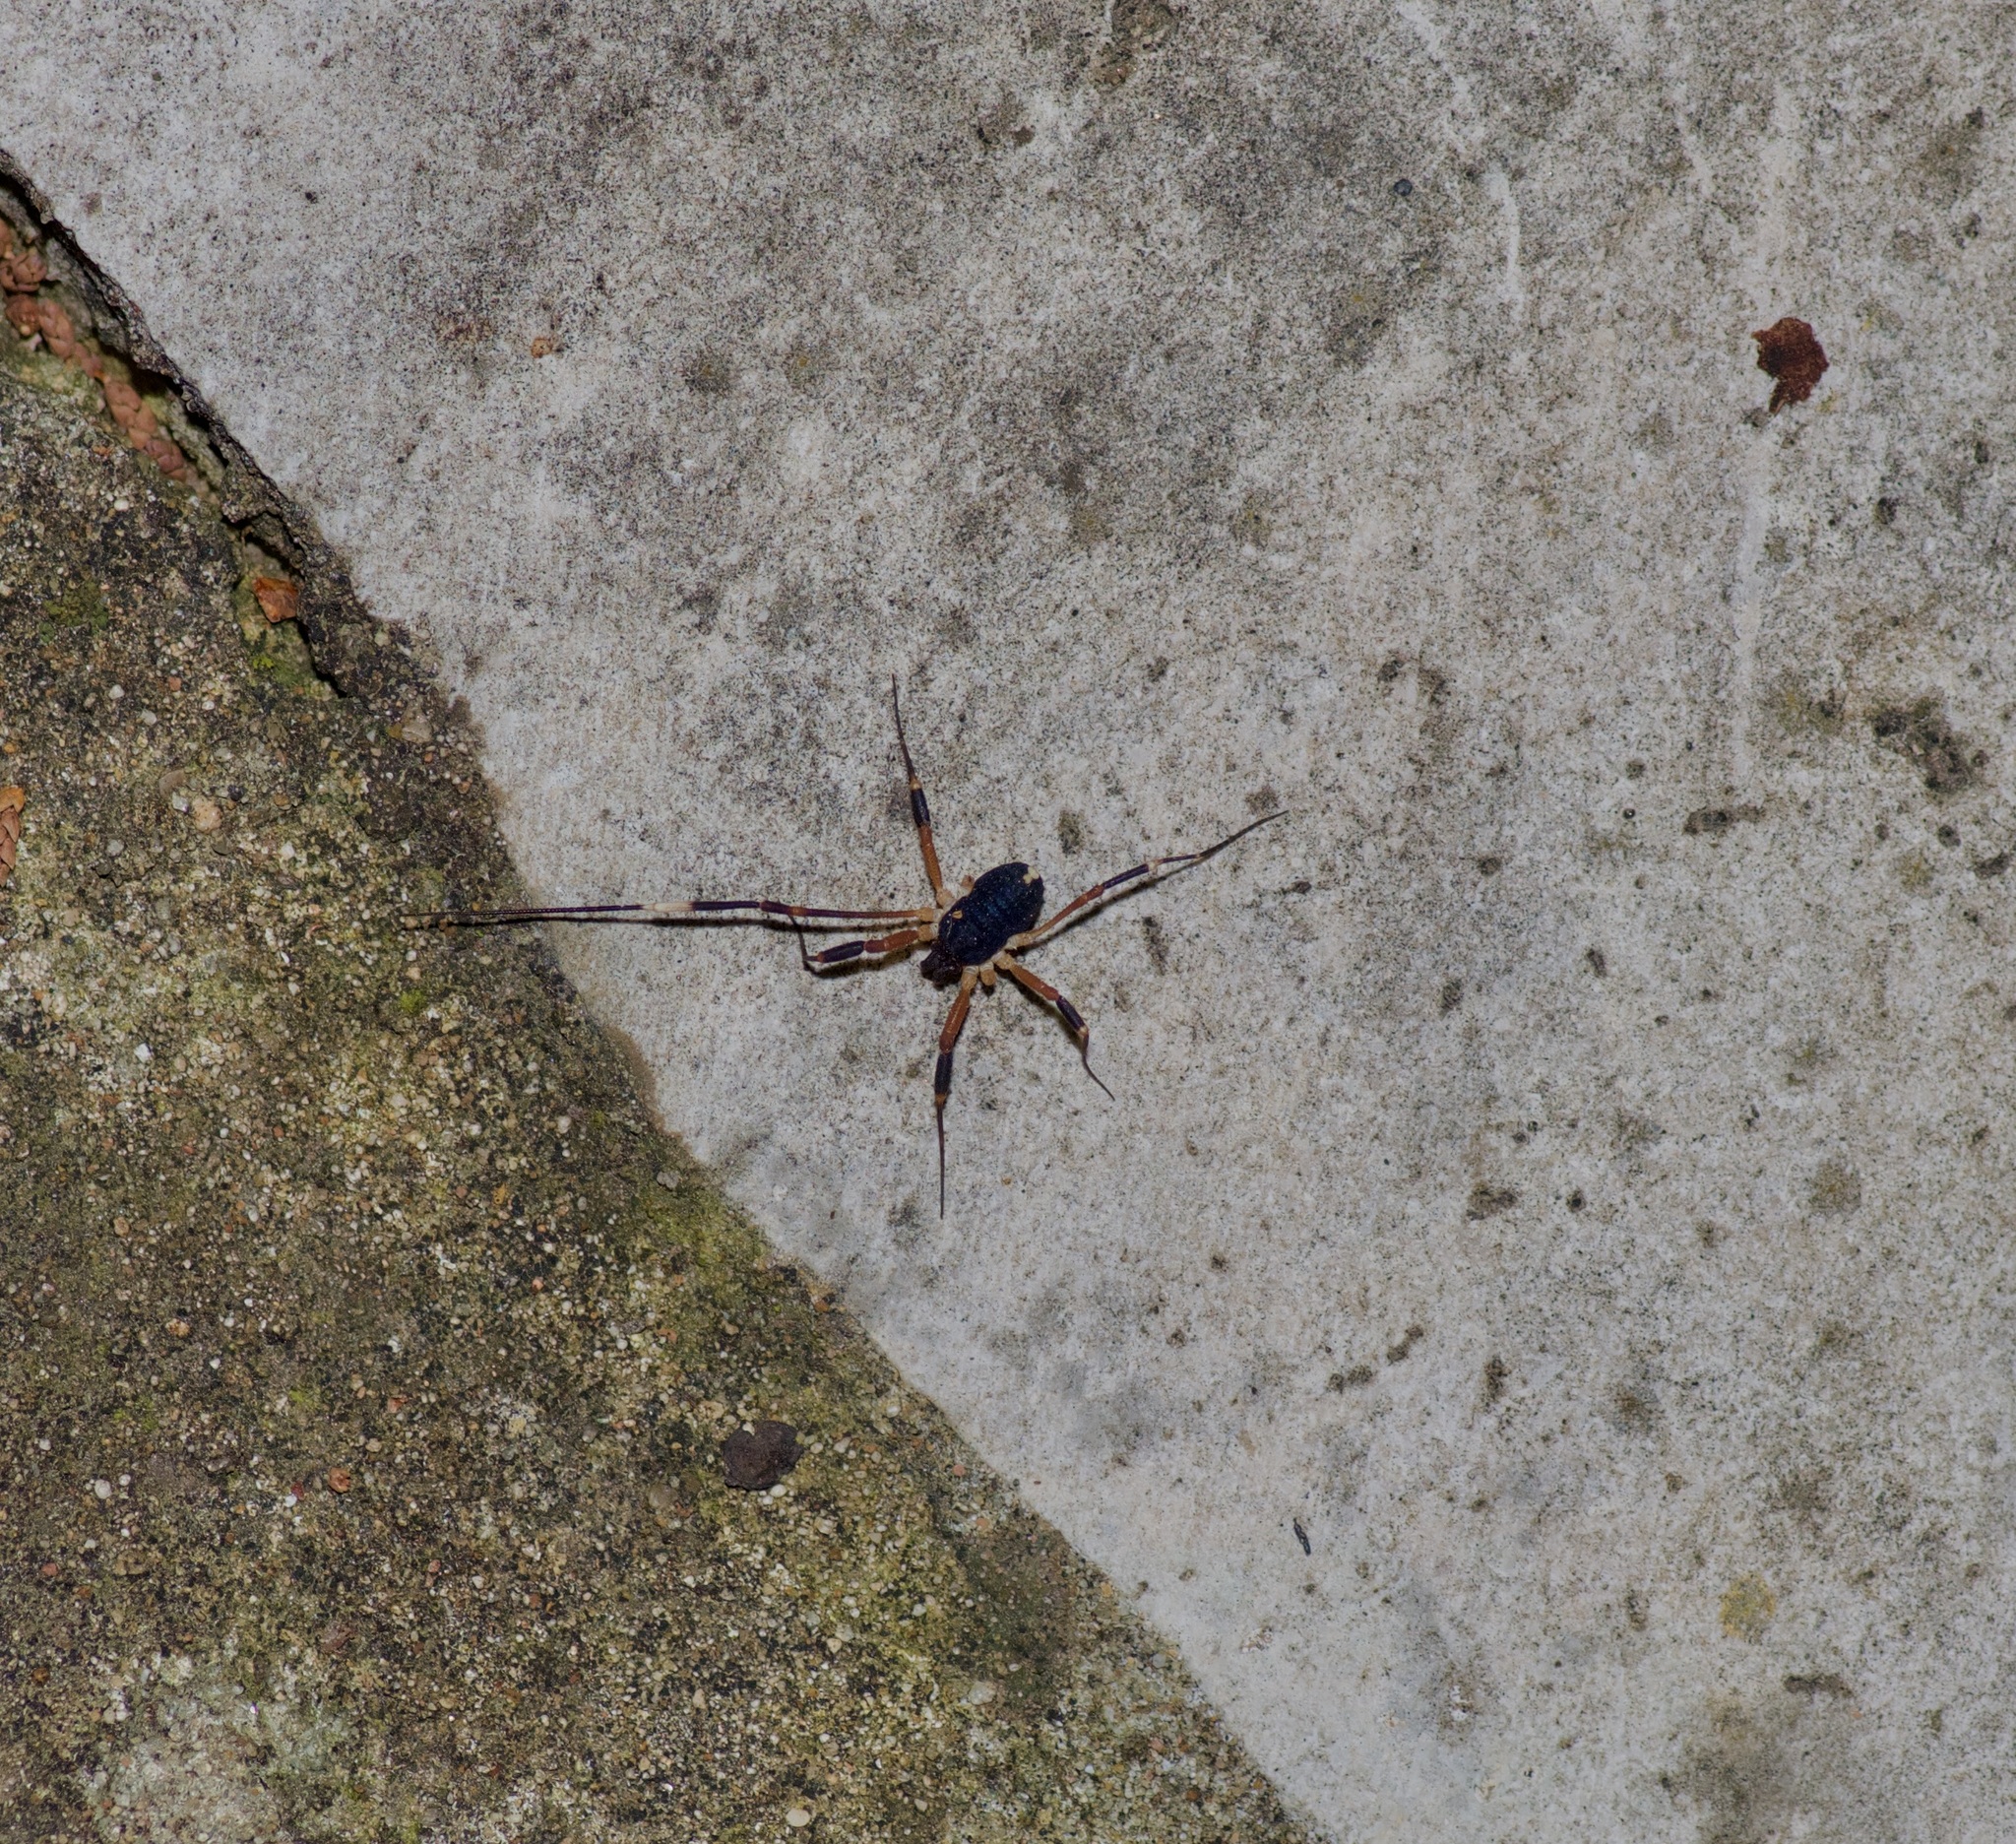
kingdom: Animalia
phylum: Arthropoda
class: Arachnida
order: Opiliones
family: Globipedidae
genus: Dalquestia
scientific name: Dalquestia formosa
